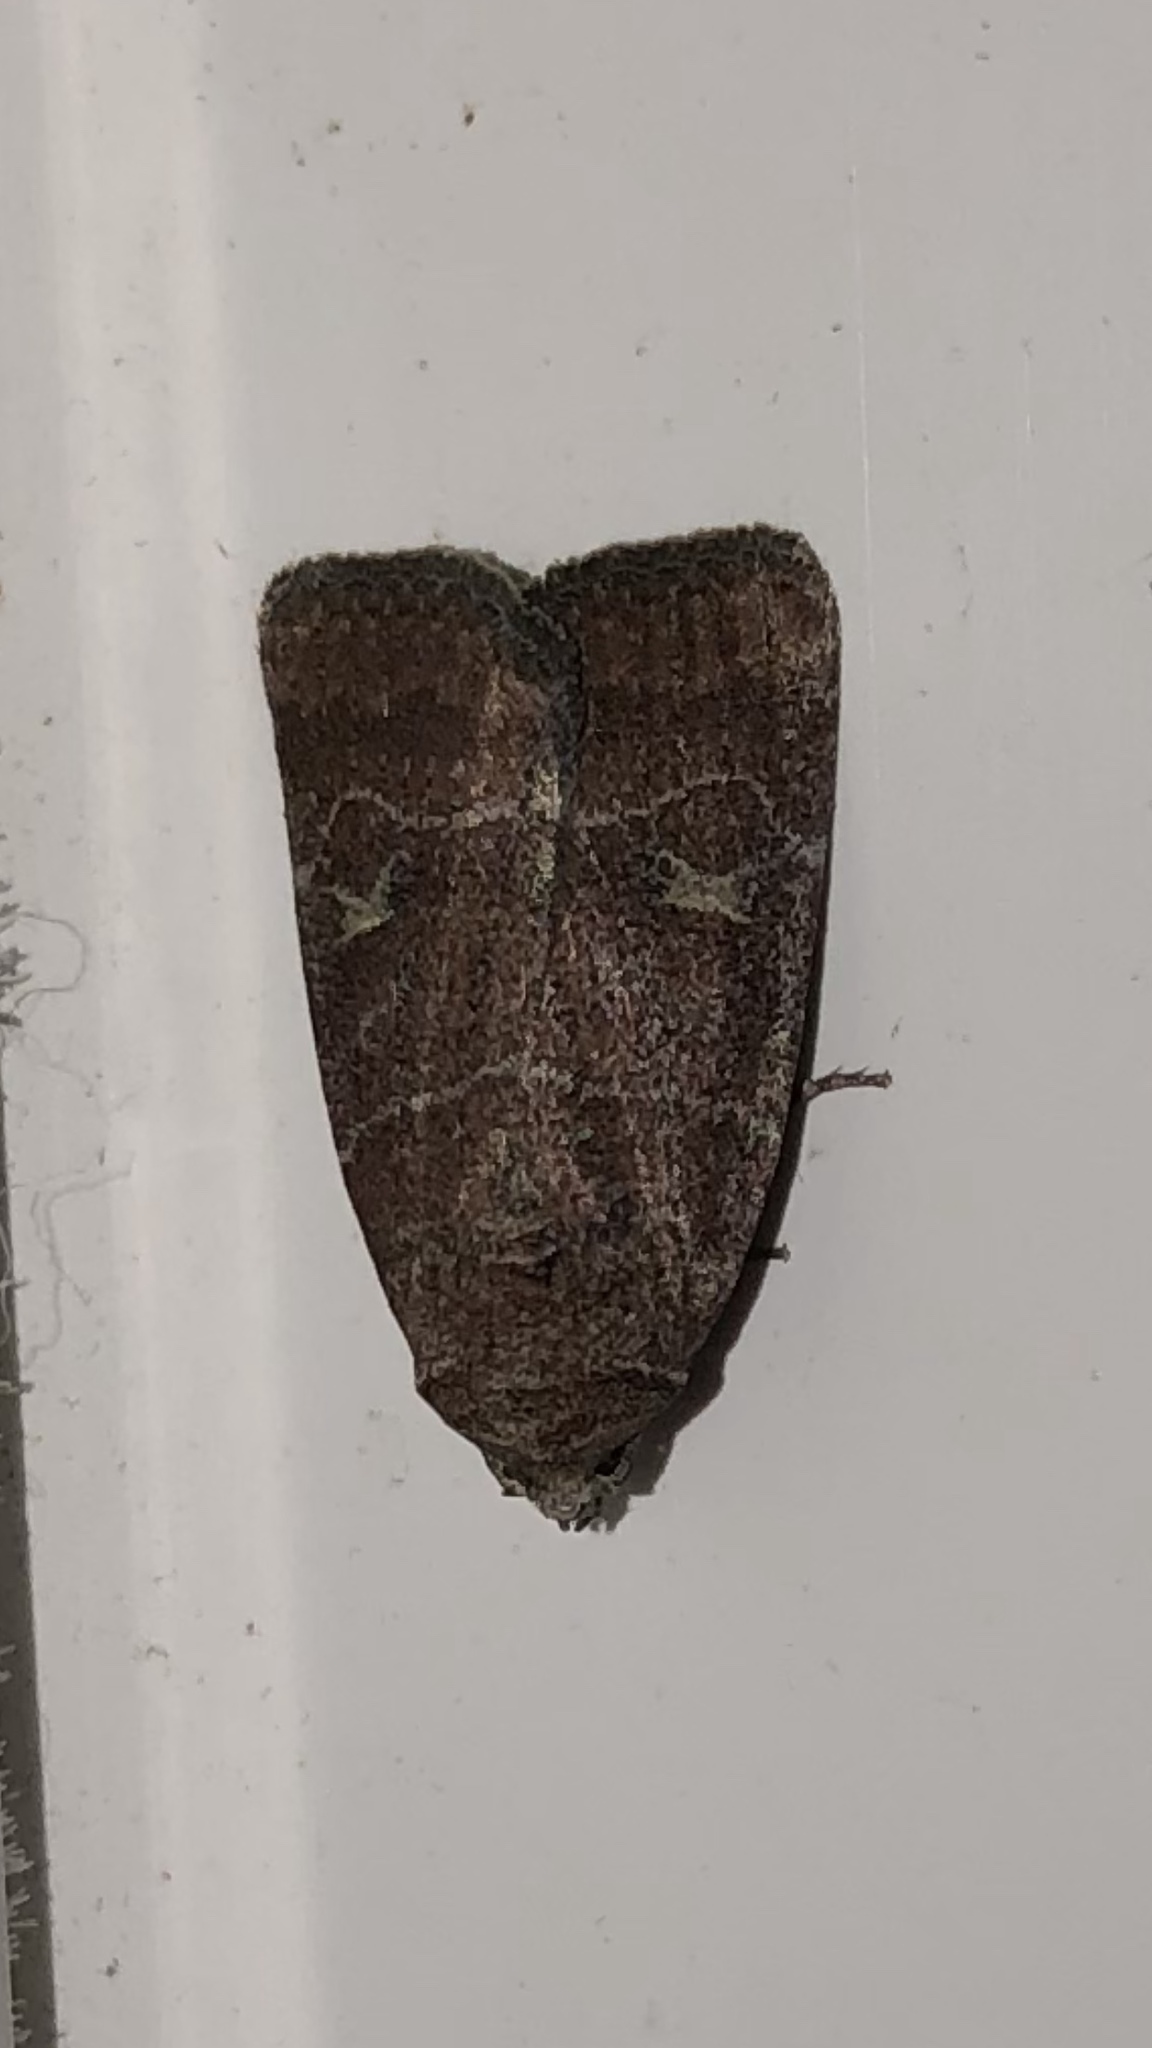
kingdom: Animalia
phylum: Arthropoda
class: Insecta
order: Lepidoptera
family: Noctuidae
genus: Elaphria
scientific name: Elaphria grata
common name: Grateful midget moth
